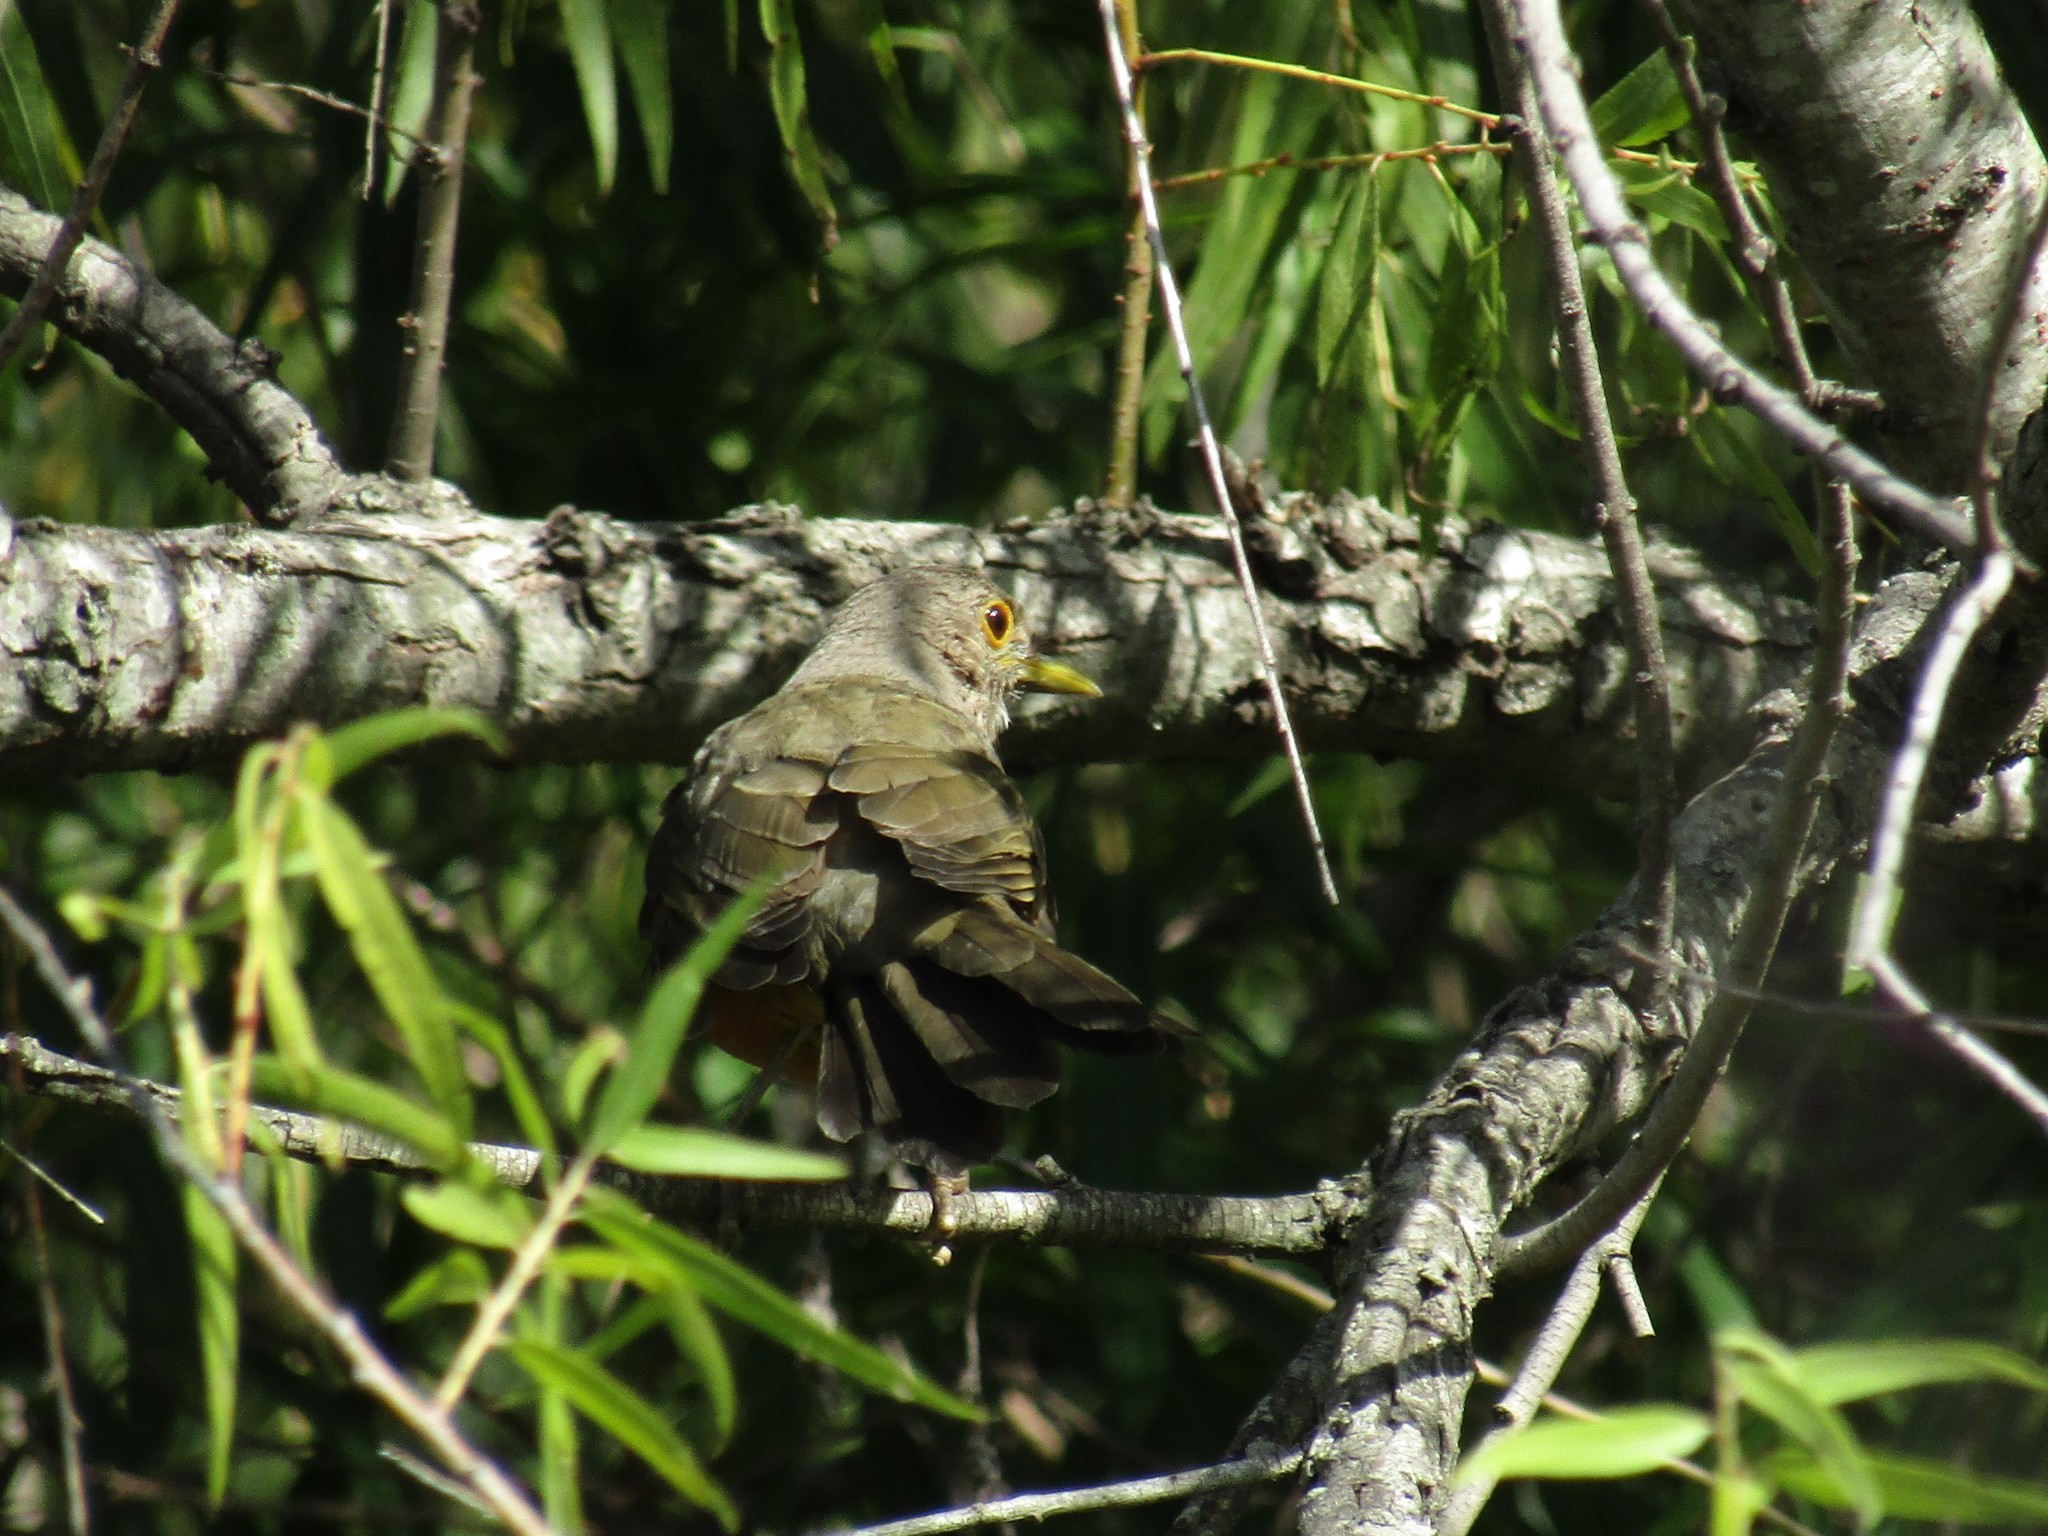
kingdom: Animalia
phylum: Chordata
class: Aves
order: Passeriformes
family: Turdidae
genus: Turdus
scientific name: Turdus rufiventris
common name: Rufous-bellied thrush
